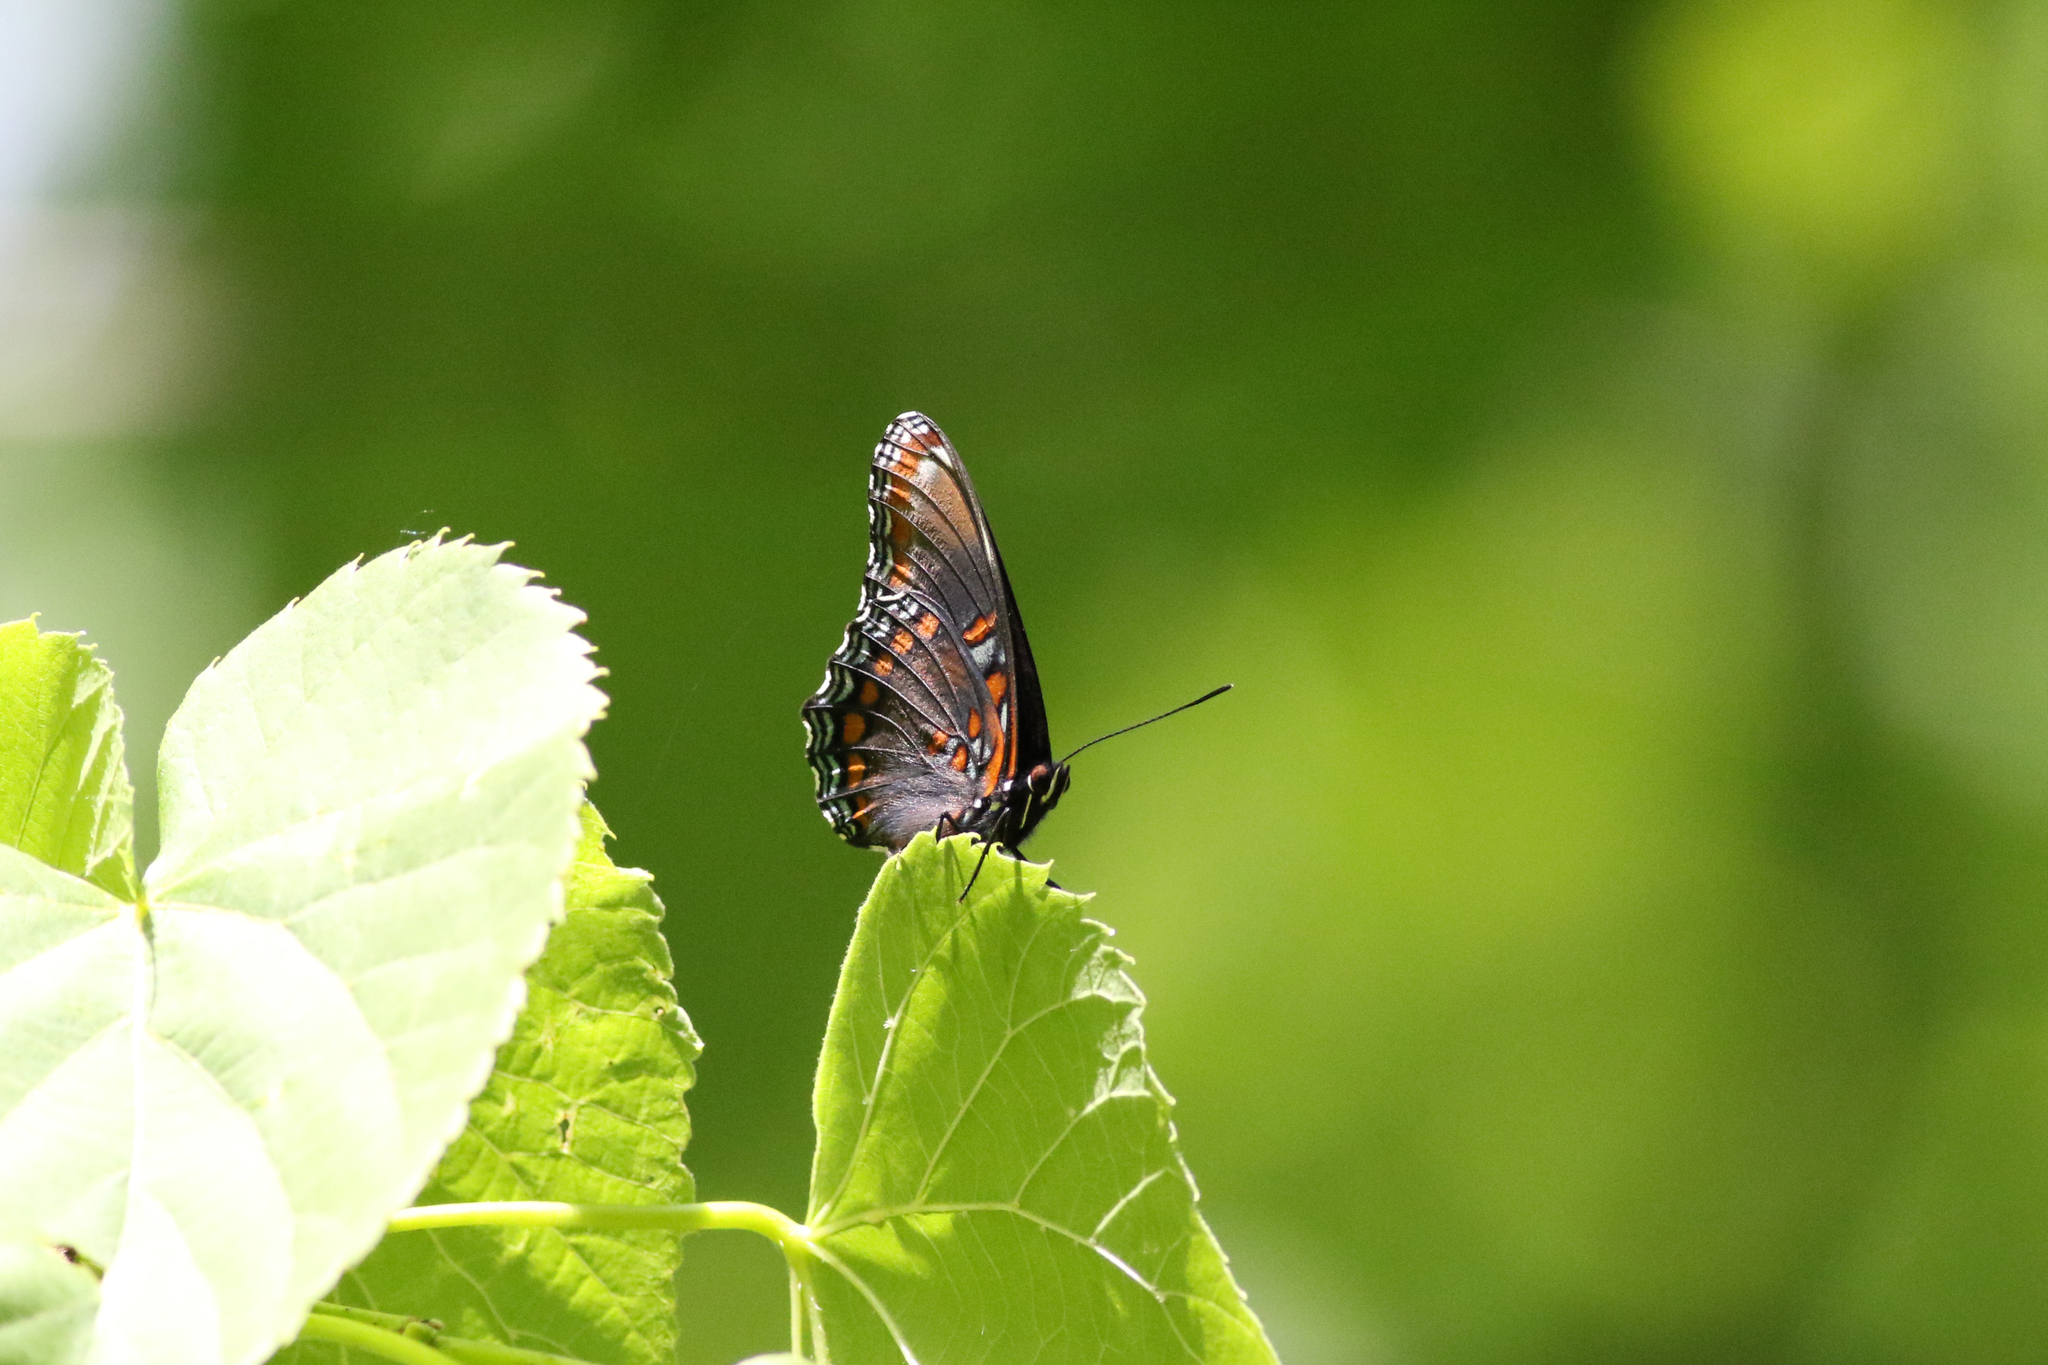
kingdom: Animalia
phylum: Arthropoda
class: Insecta
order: Lepidoptera
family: Nymphalidae
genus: Limenitis
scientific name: Limenitis astyanax
